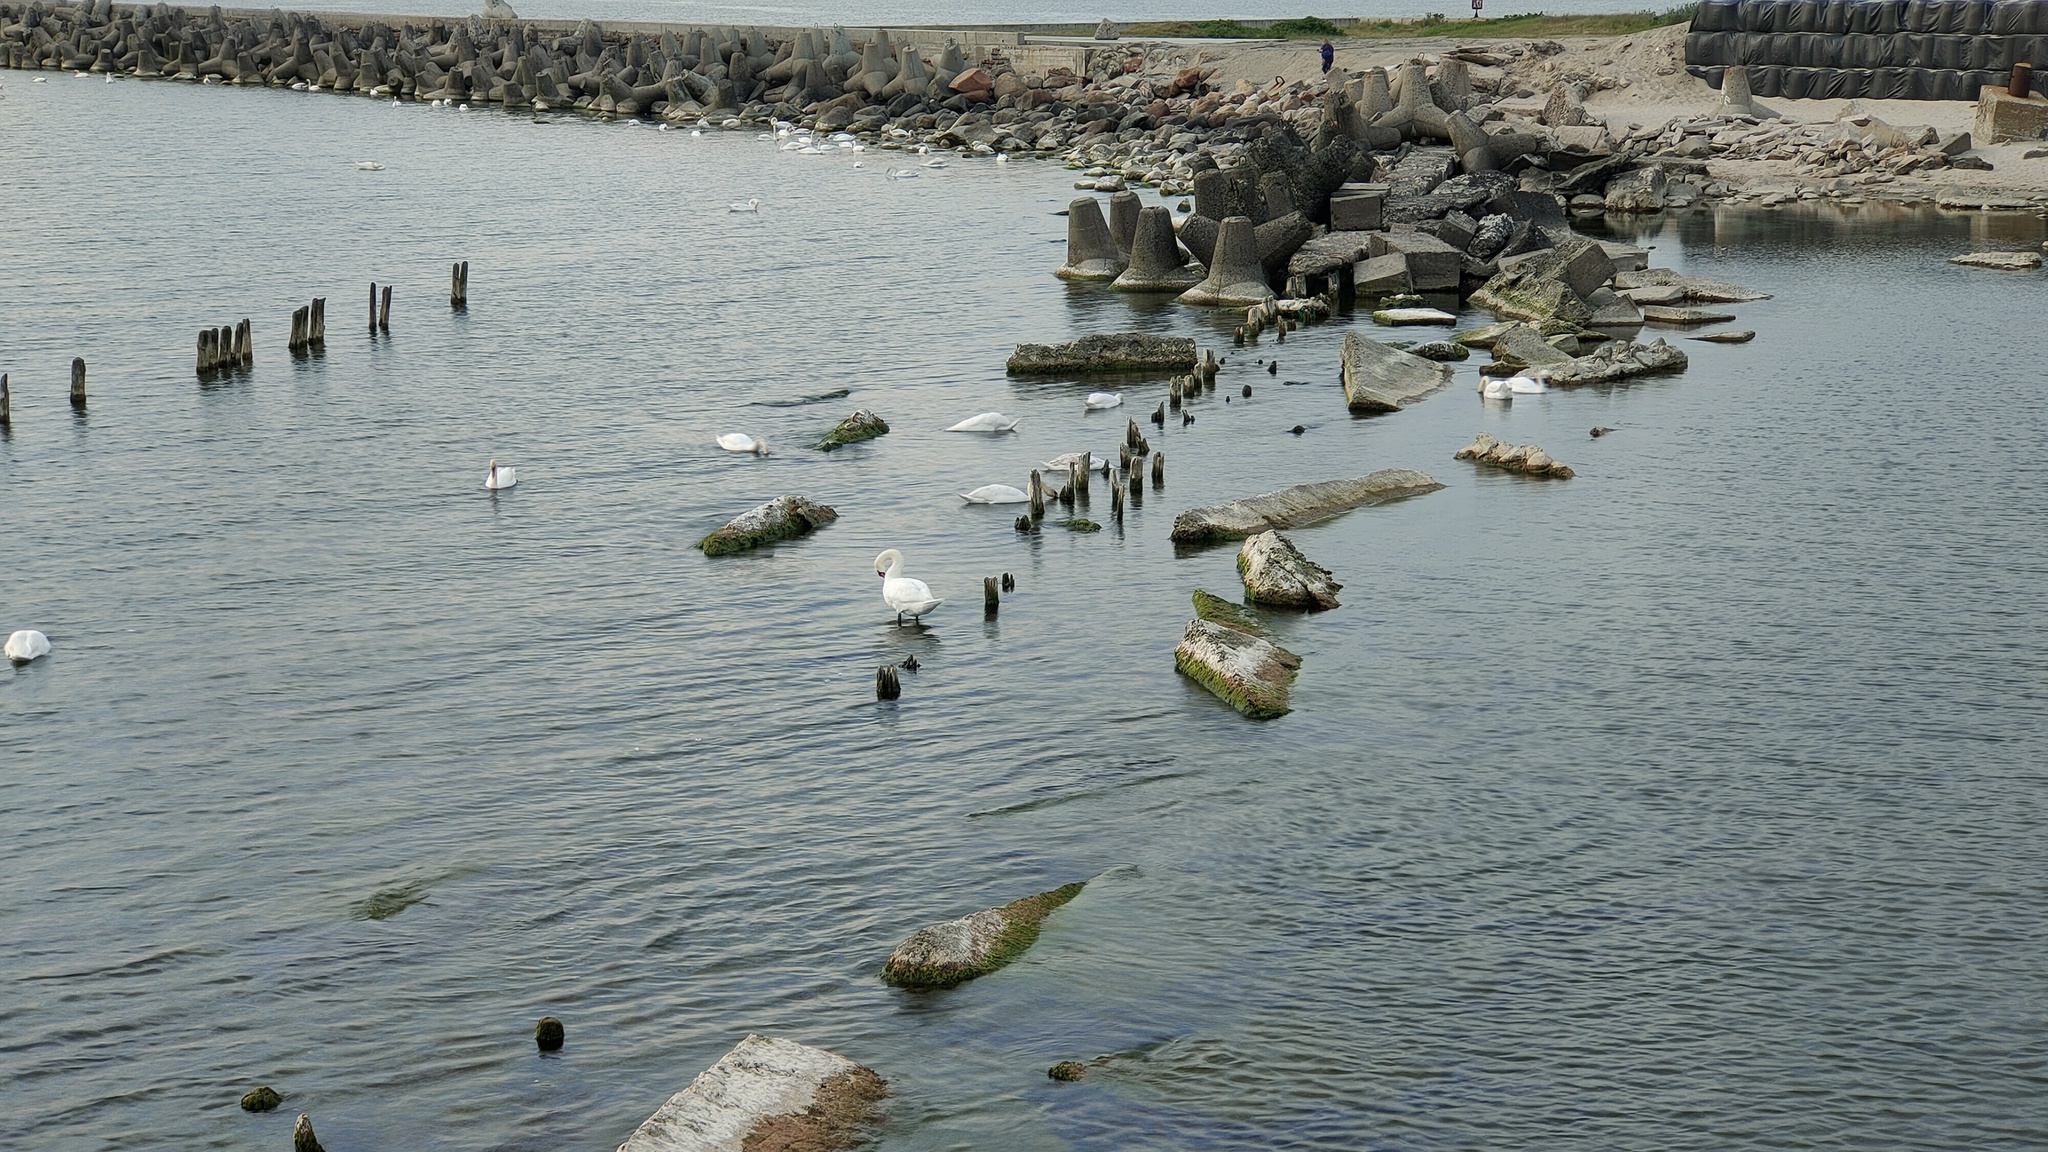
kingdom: Animalia
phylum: Chordata
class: Aves
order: Anseriformes
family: Anatidae
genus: Cygnus
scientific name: Cygnus olor
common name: Mute swan
